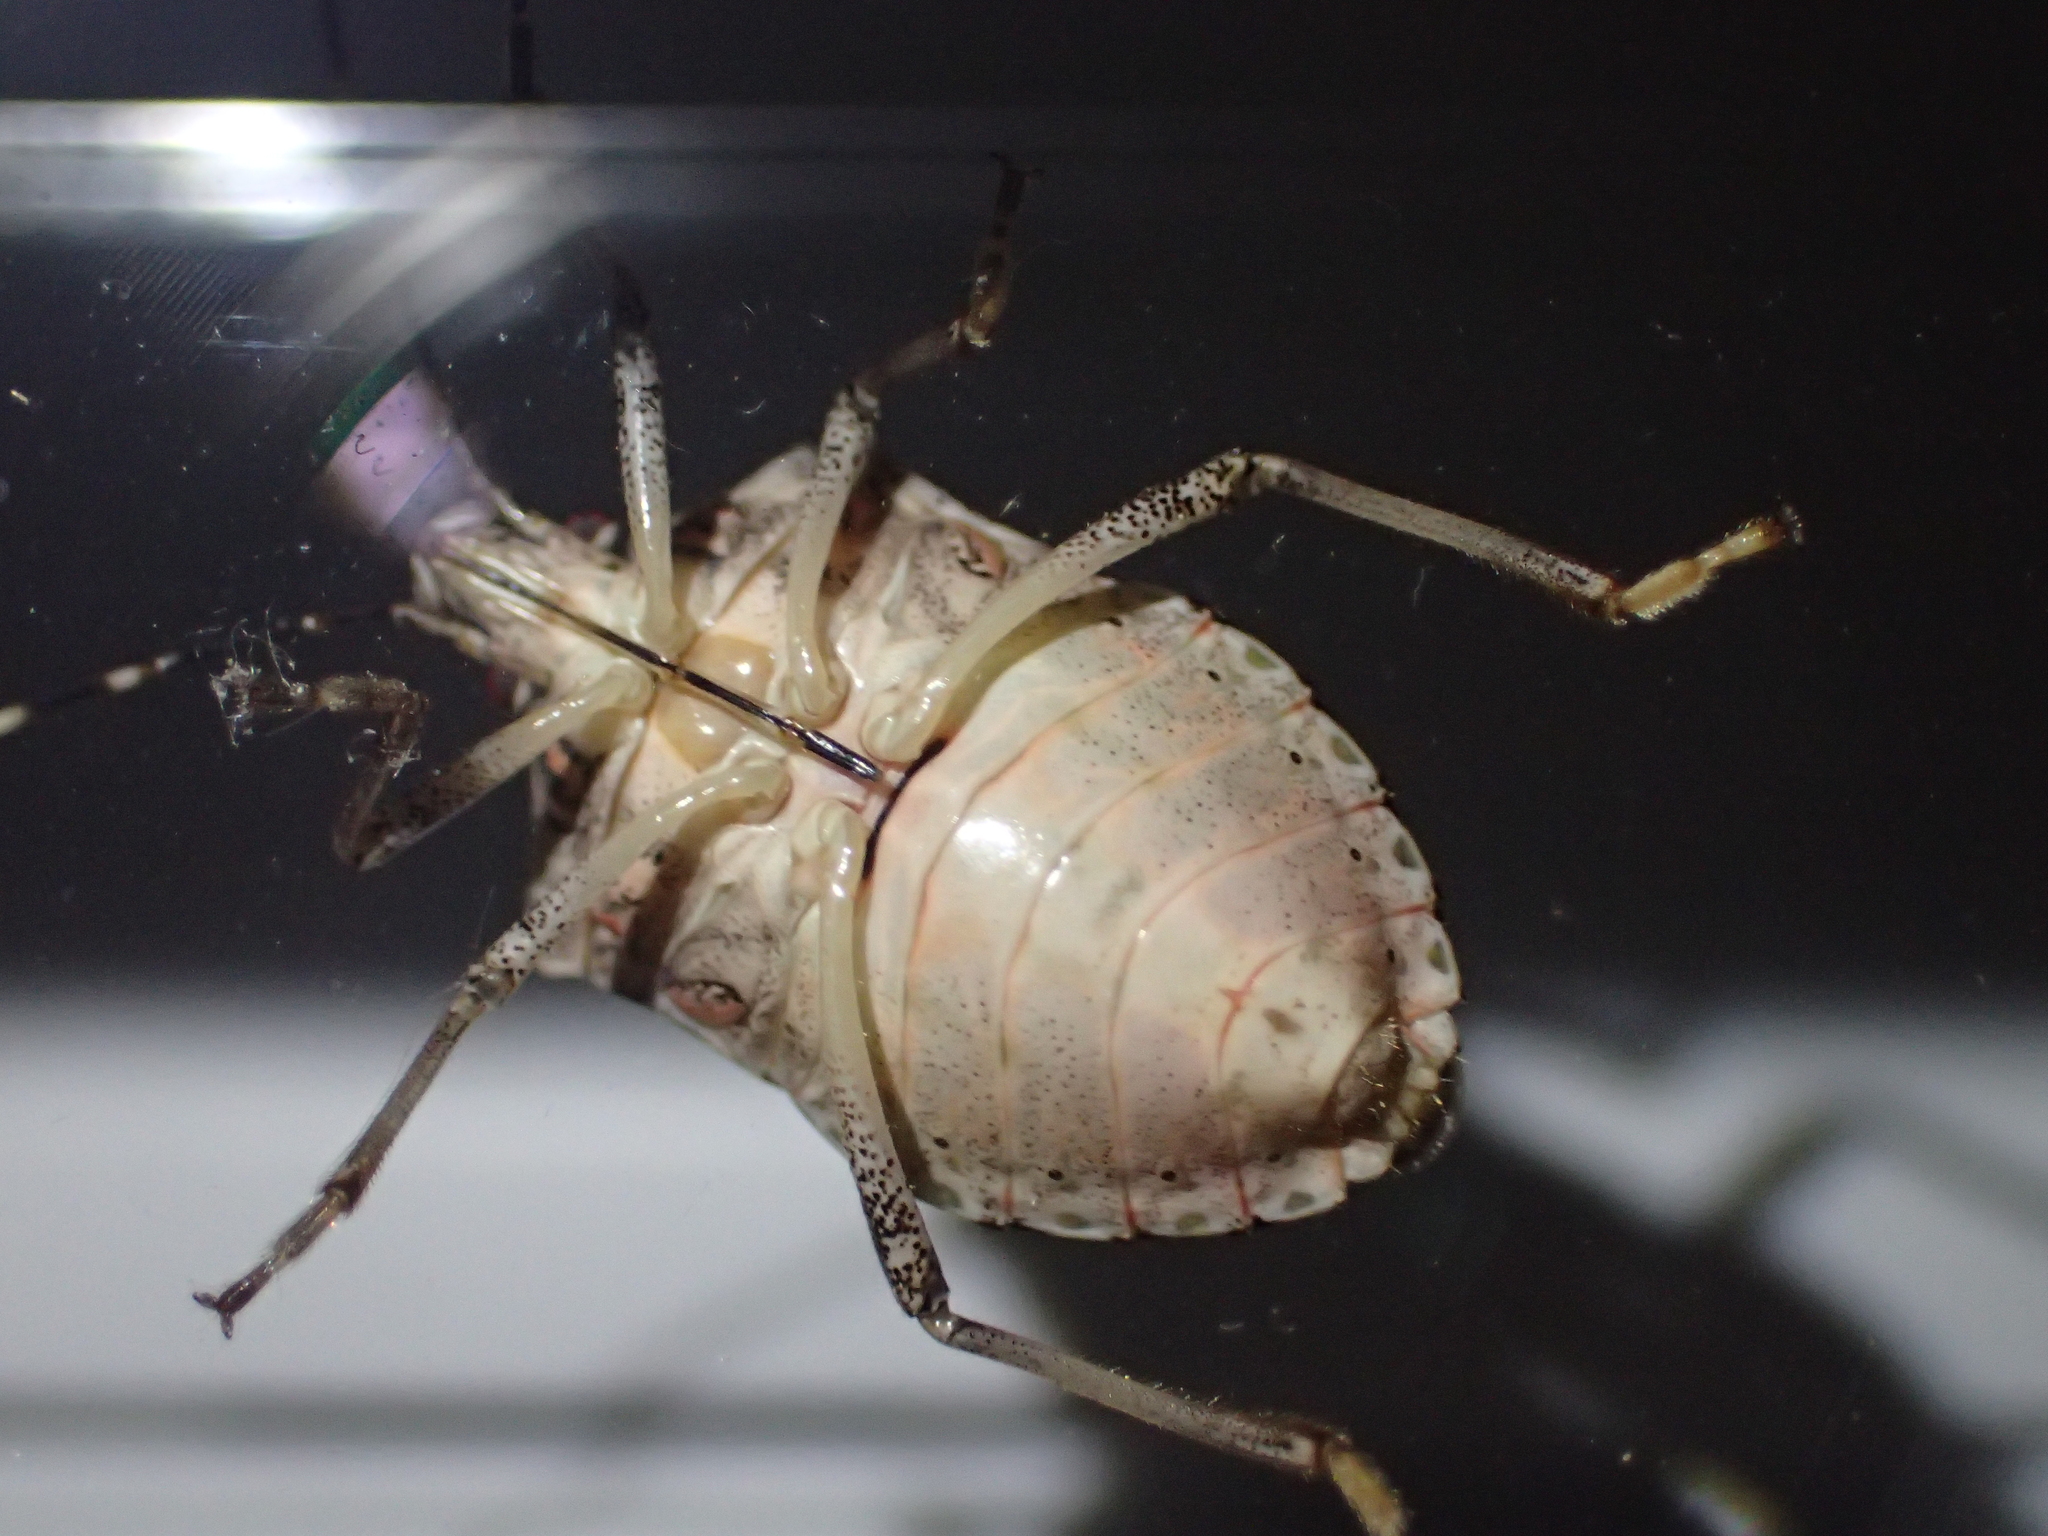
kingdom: Animalia
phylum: Arthropoda
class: Insecta
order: Hemiptera
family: Pentatomidae
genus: Halyomorpha
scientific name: Halyomorpha halys
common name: Brown marmorated stink bug
